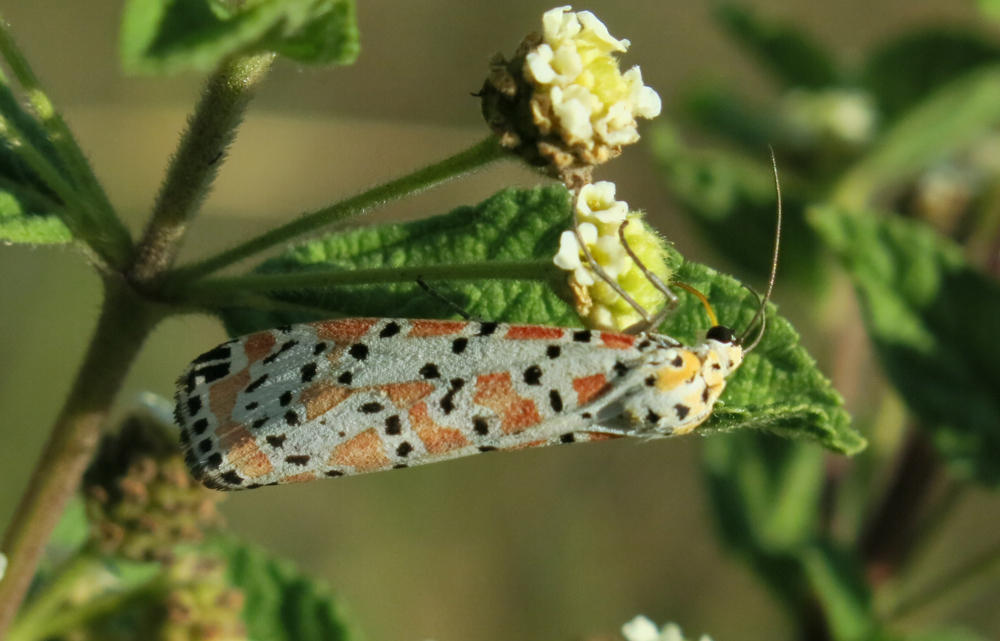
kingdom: Animalia
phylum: Arthropoda
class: Insecta
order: Lepidoptera
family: Erebidae
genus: Utetheisa
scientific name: Utetheisa pulchella
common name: Crimson speckled
